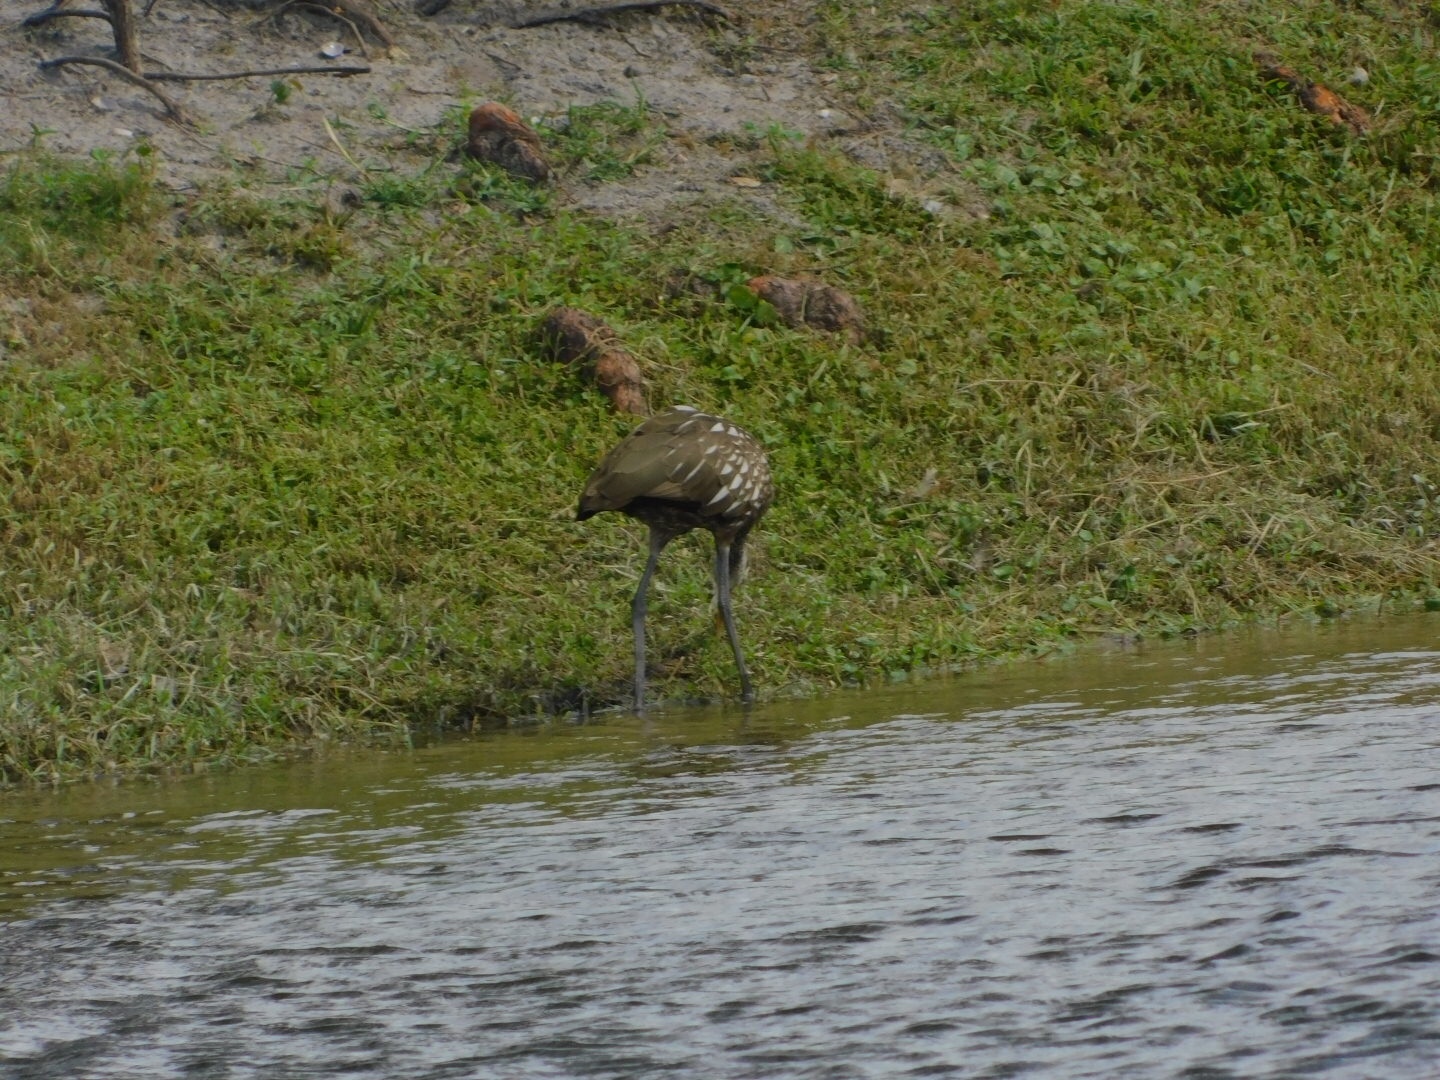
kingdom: Animalia
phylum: Chordata
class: Aves
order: Gruiformes
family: Aramidae
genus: Aramus
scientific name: Aramus guarauna
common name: Limpkin
